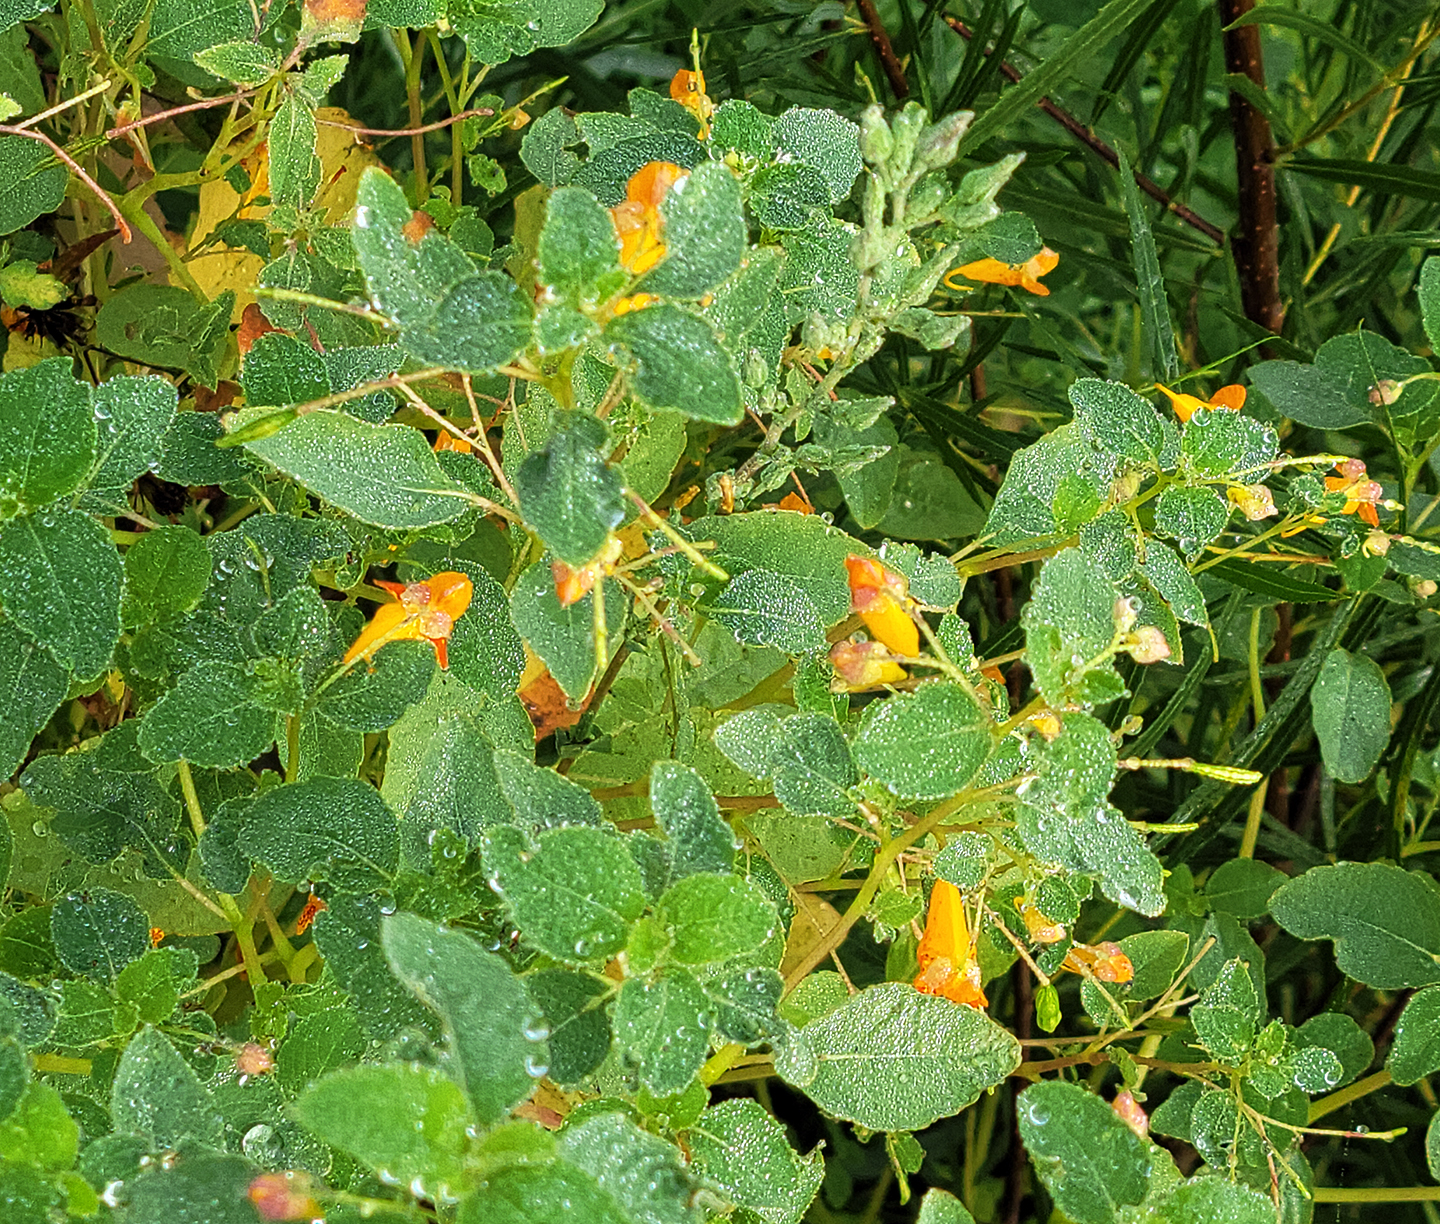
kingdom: Plantae
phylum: Tracheophyta
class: Magnoliopsida
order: Ericales
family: Balsaminaceae
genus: Impatiens
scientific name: Impatiens capensis
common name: Orange balsam
